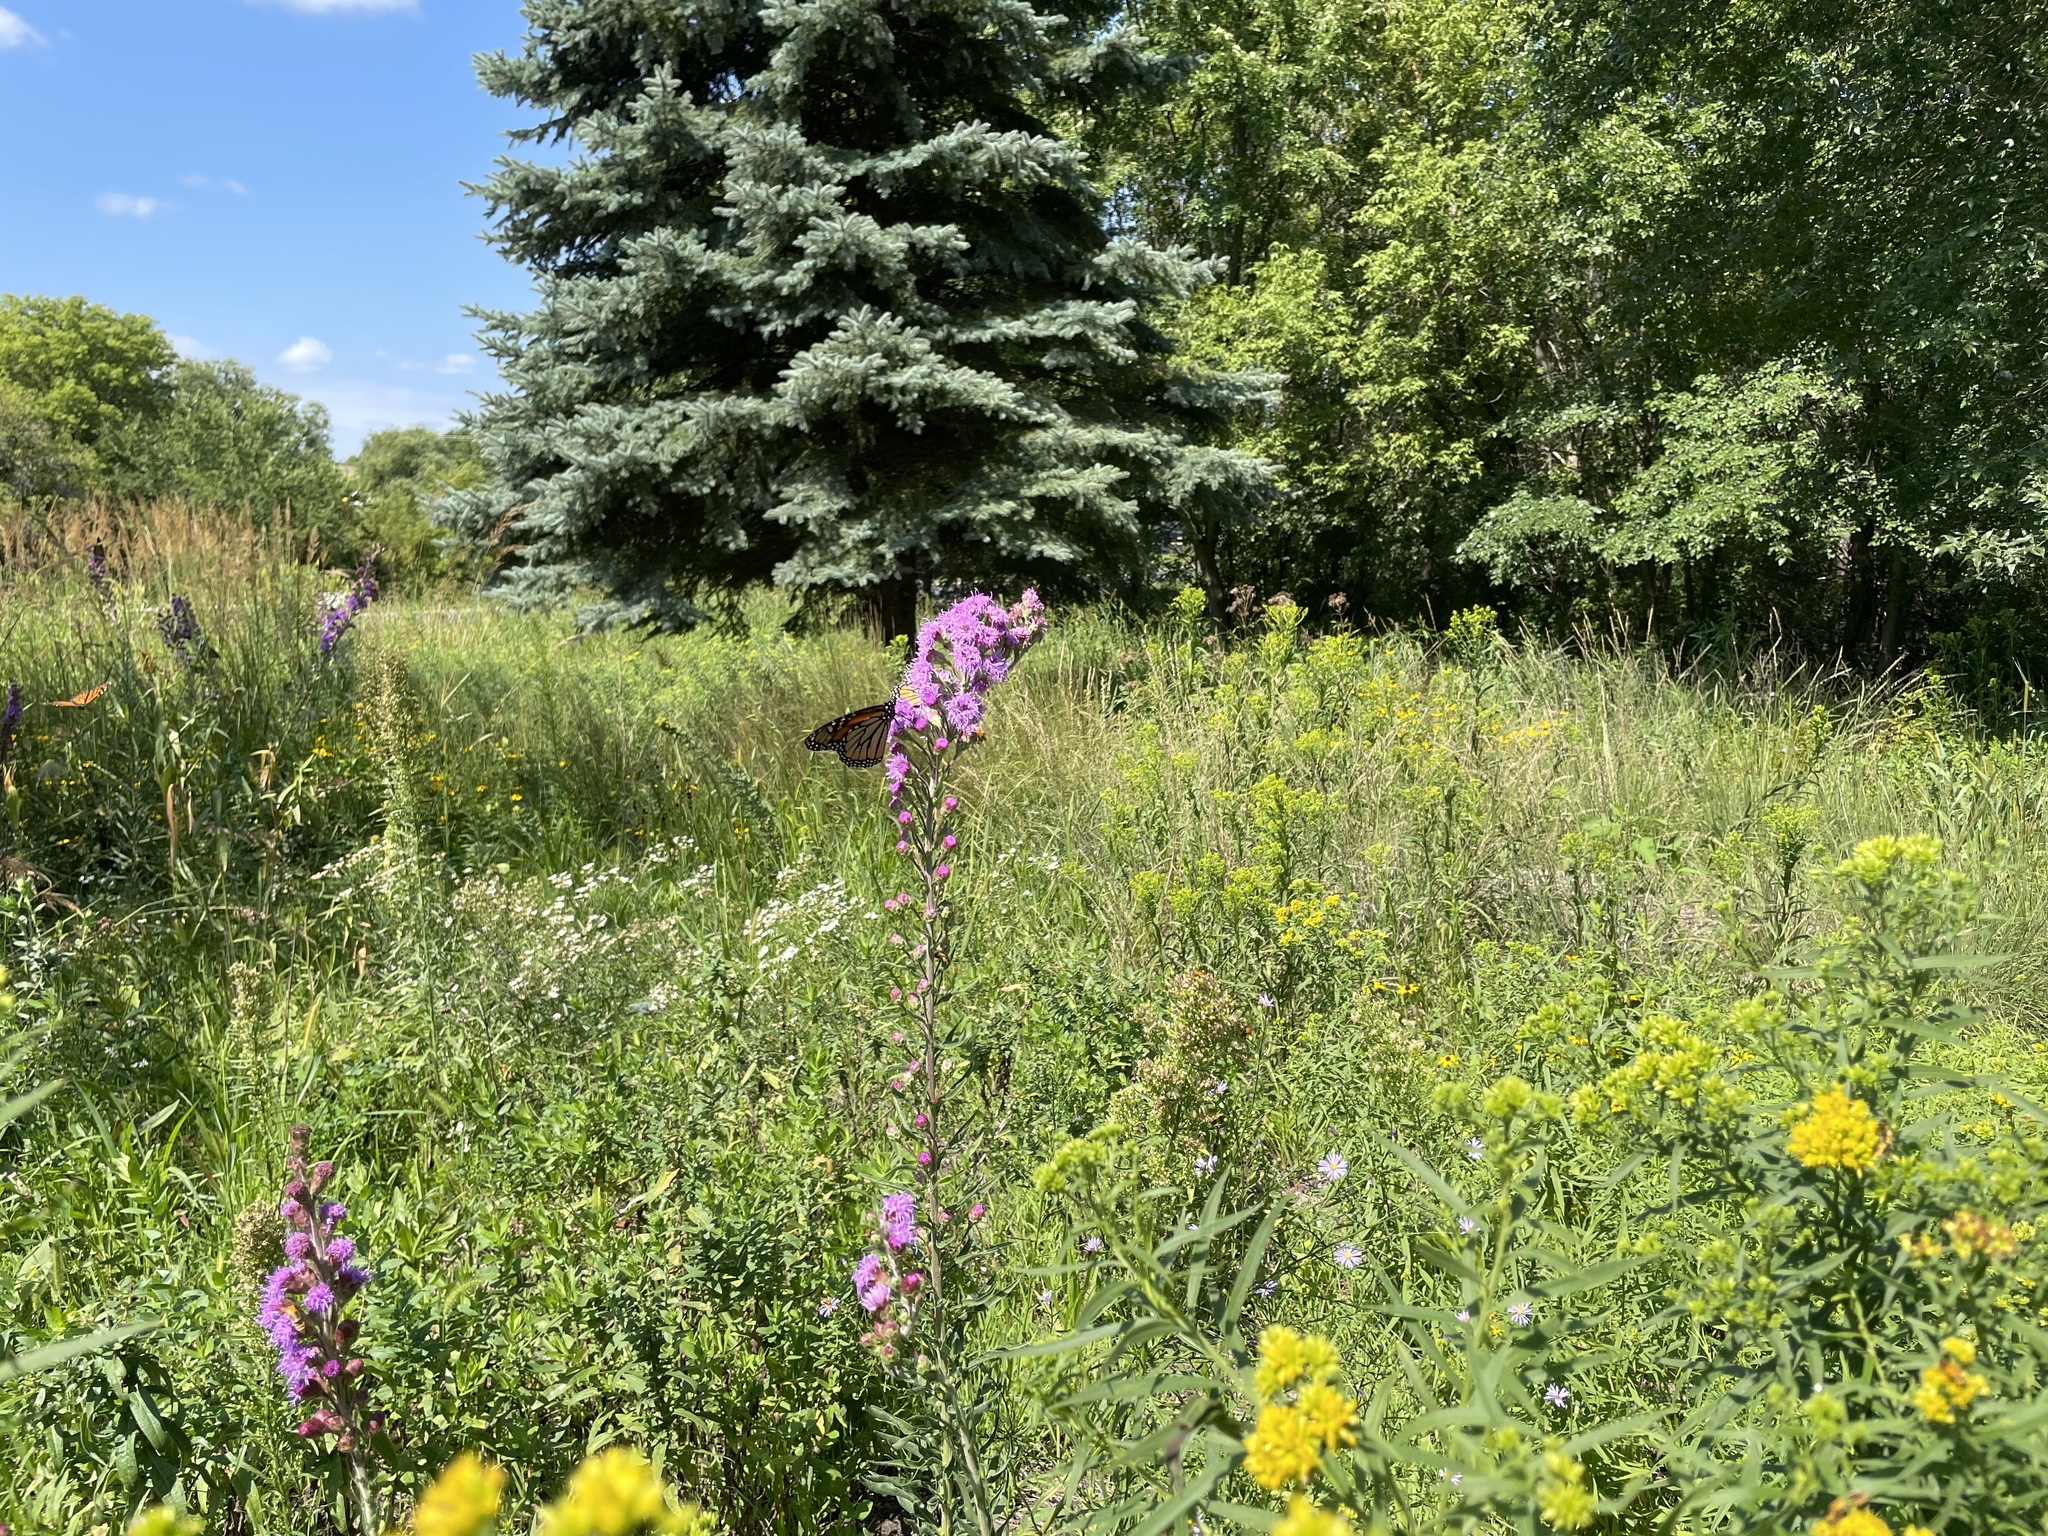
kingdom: Animalia
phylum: Arthropoda
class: Insecta
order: Lepidoptera
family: Nymphalidae
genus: Danaus
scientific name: Danaus plexippus
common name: Monarch
